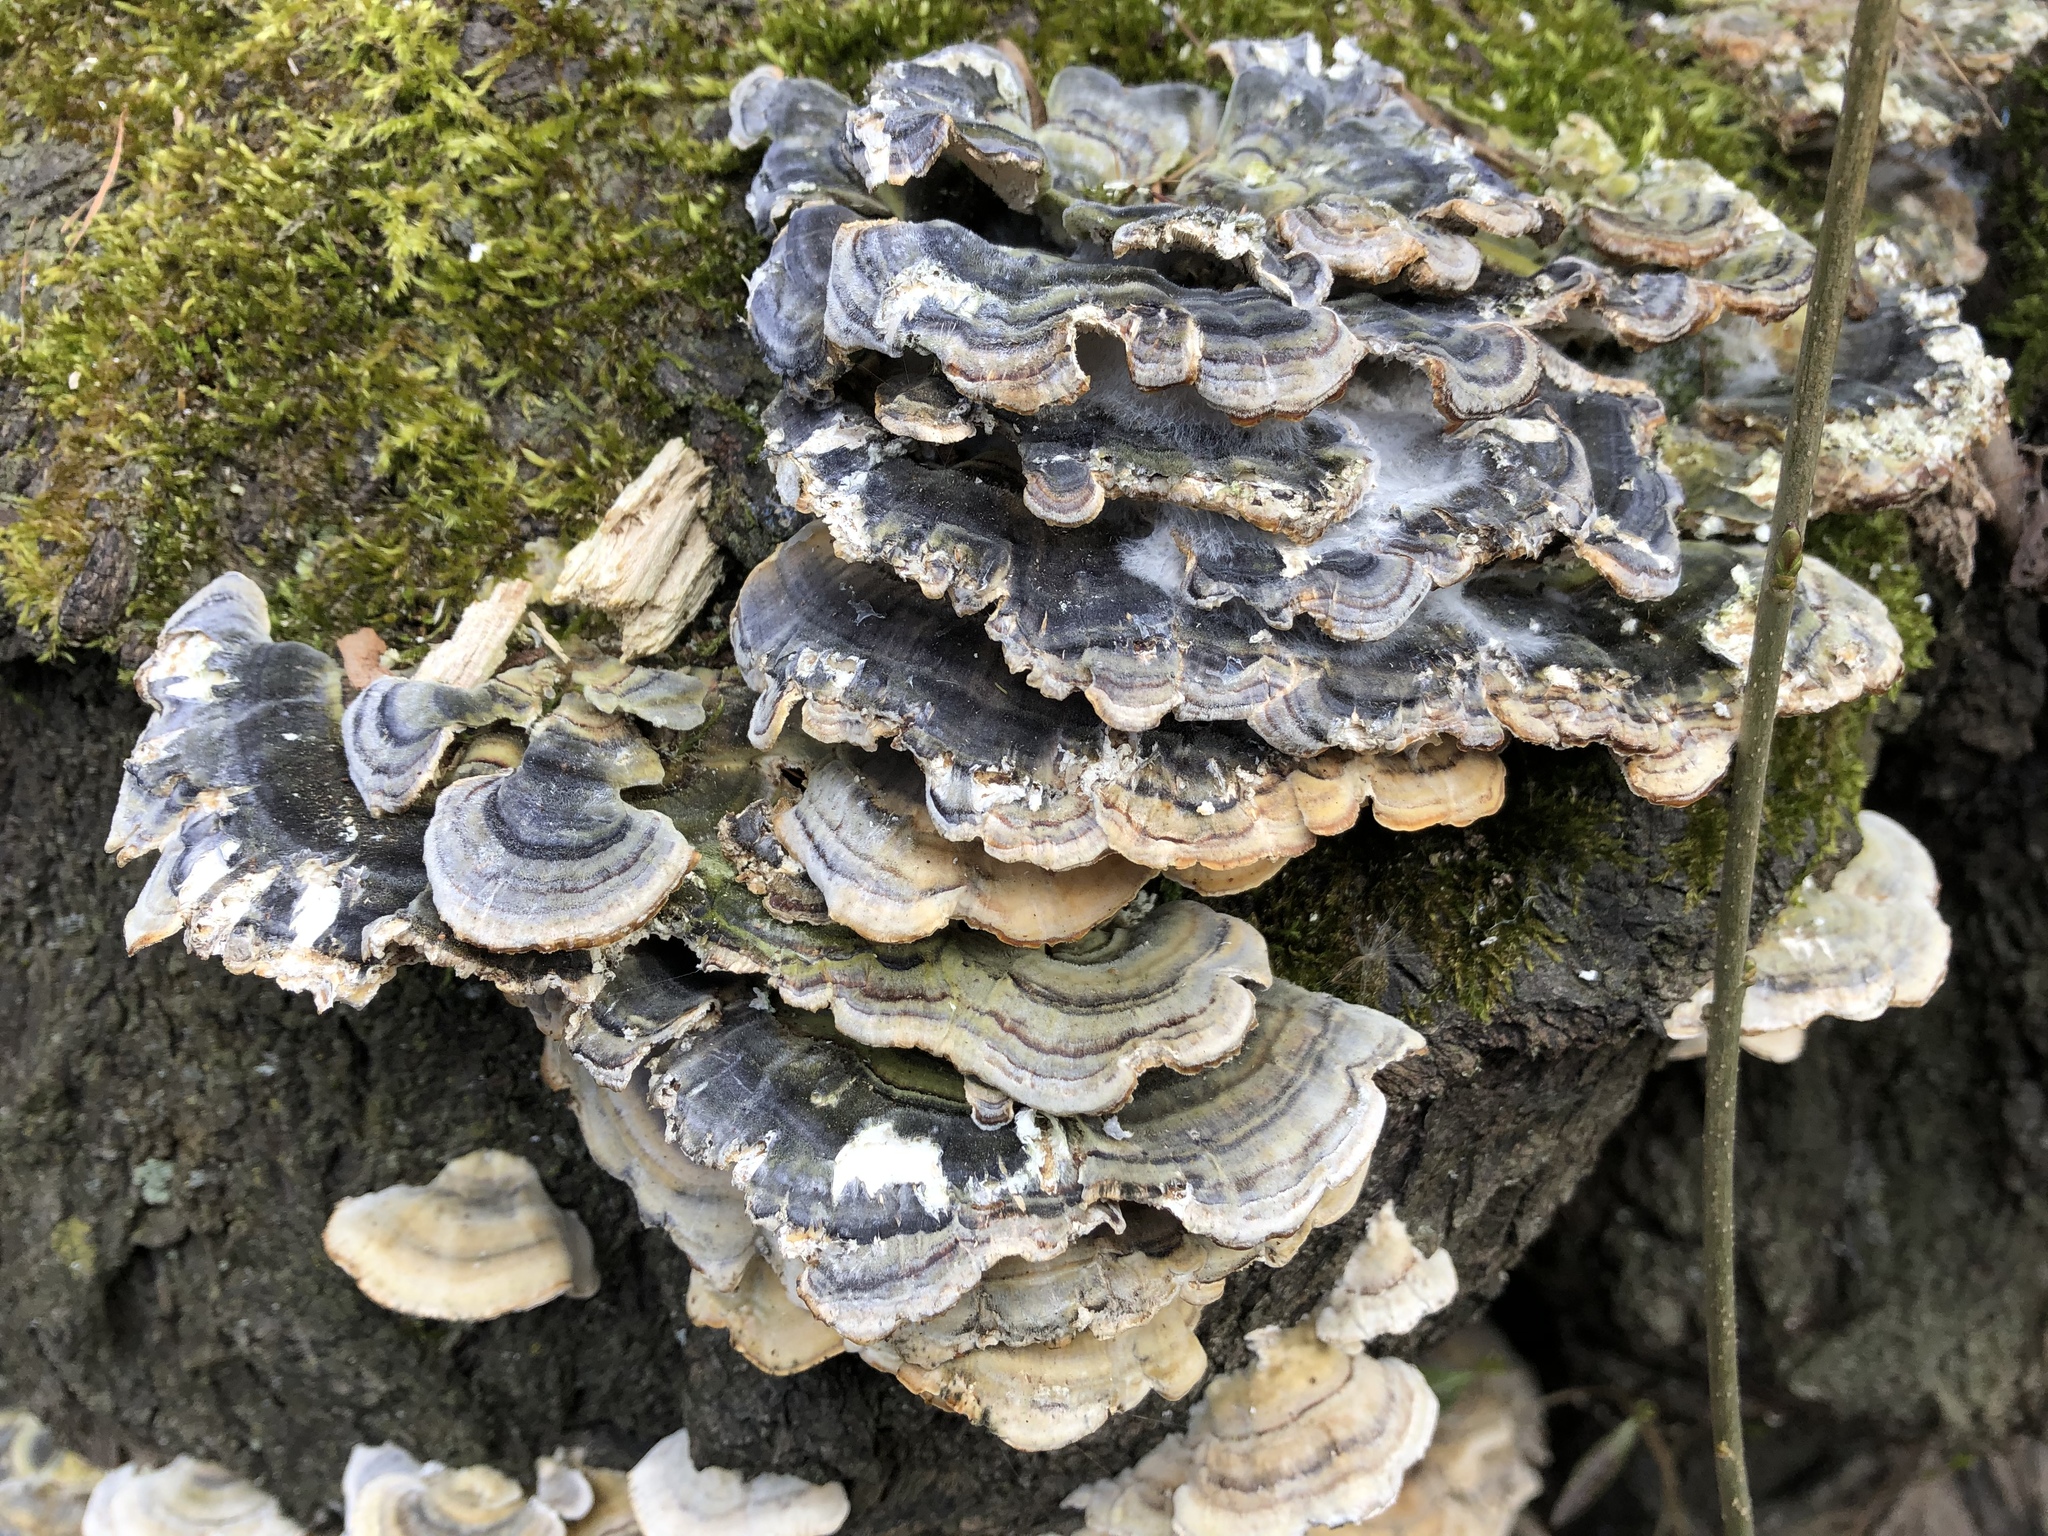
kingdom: Fungi
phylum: Basidiomycota
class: Agaricomycetes
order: Polyporales
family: Polyporaceae
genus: Trametes
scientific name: Trametes versicolor
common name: Turkeytail
